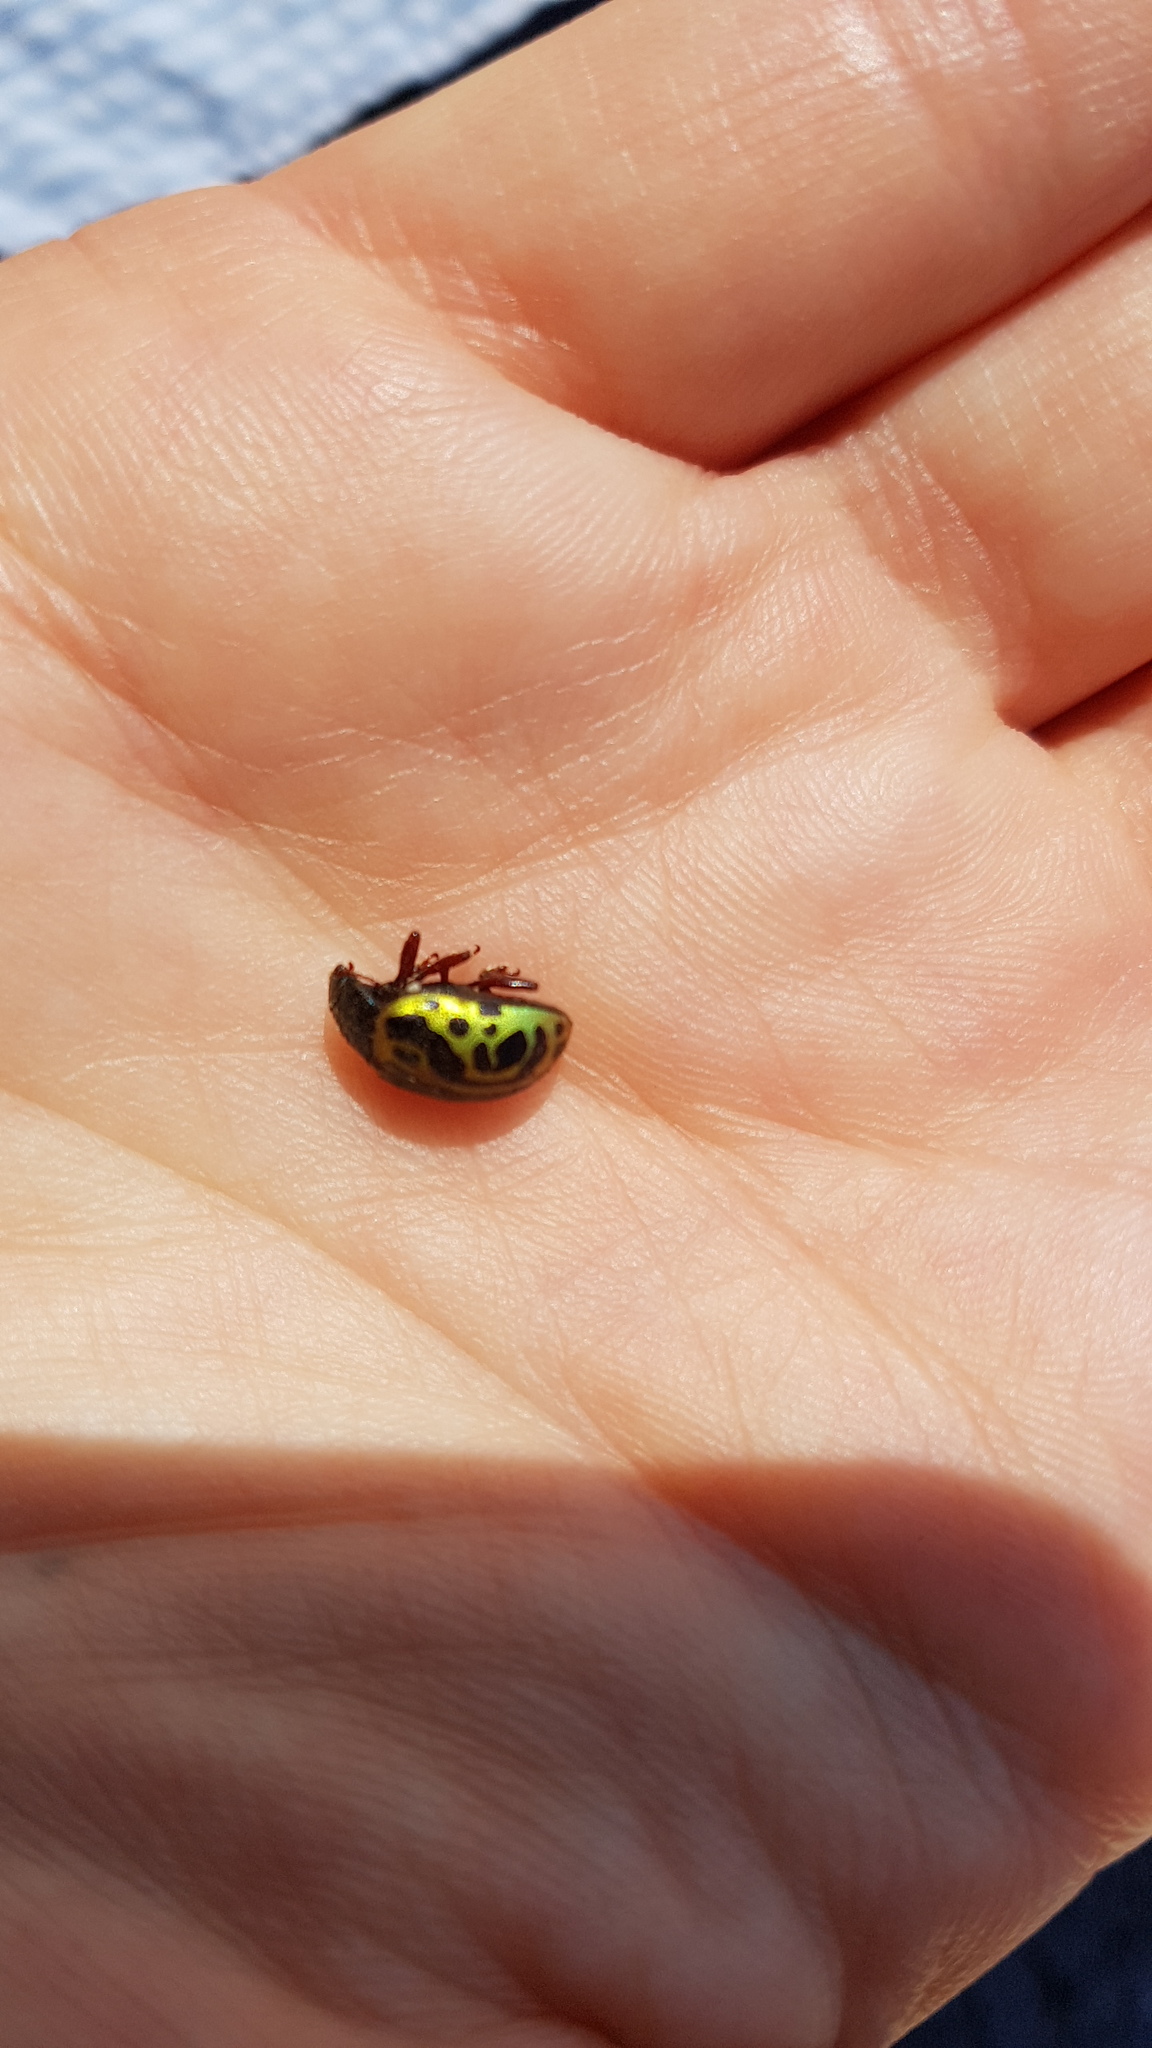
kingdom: Animalia
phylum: Arthropoda
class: Insecta
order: Coleoptera
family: Chrysomelidae
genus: Calligrapha
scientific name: Calligrapha sallei
